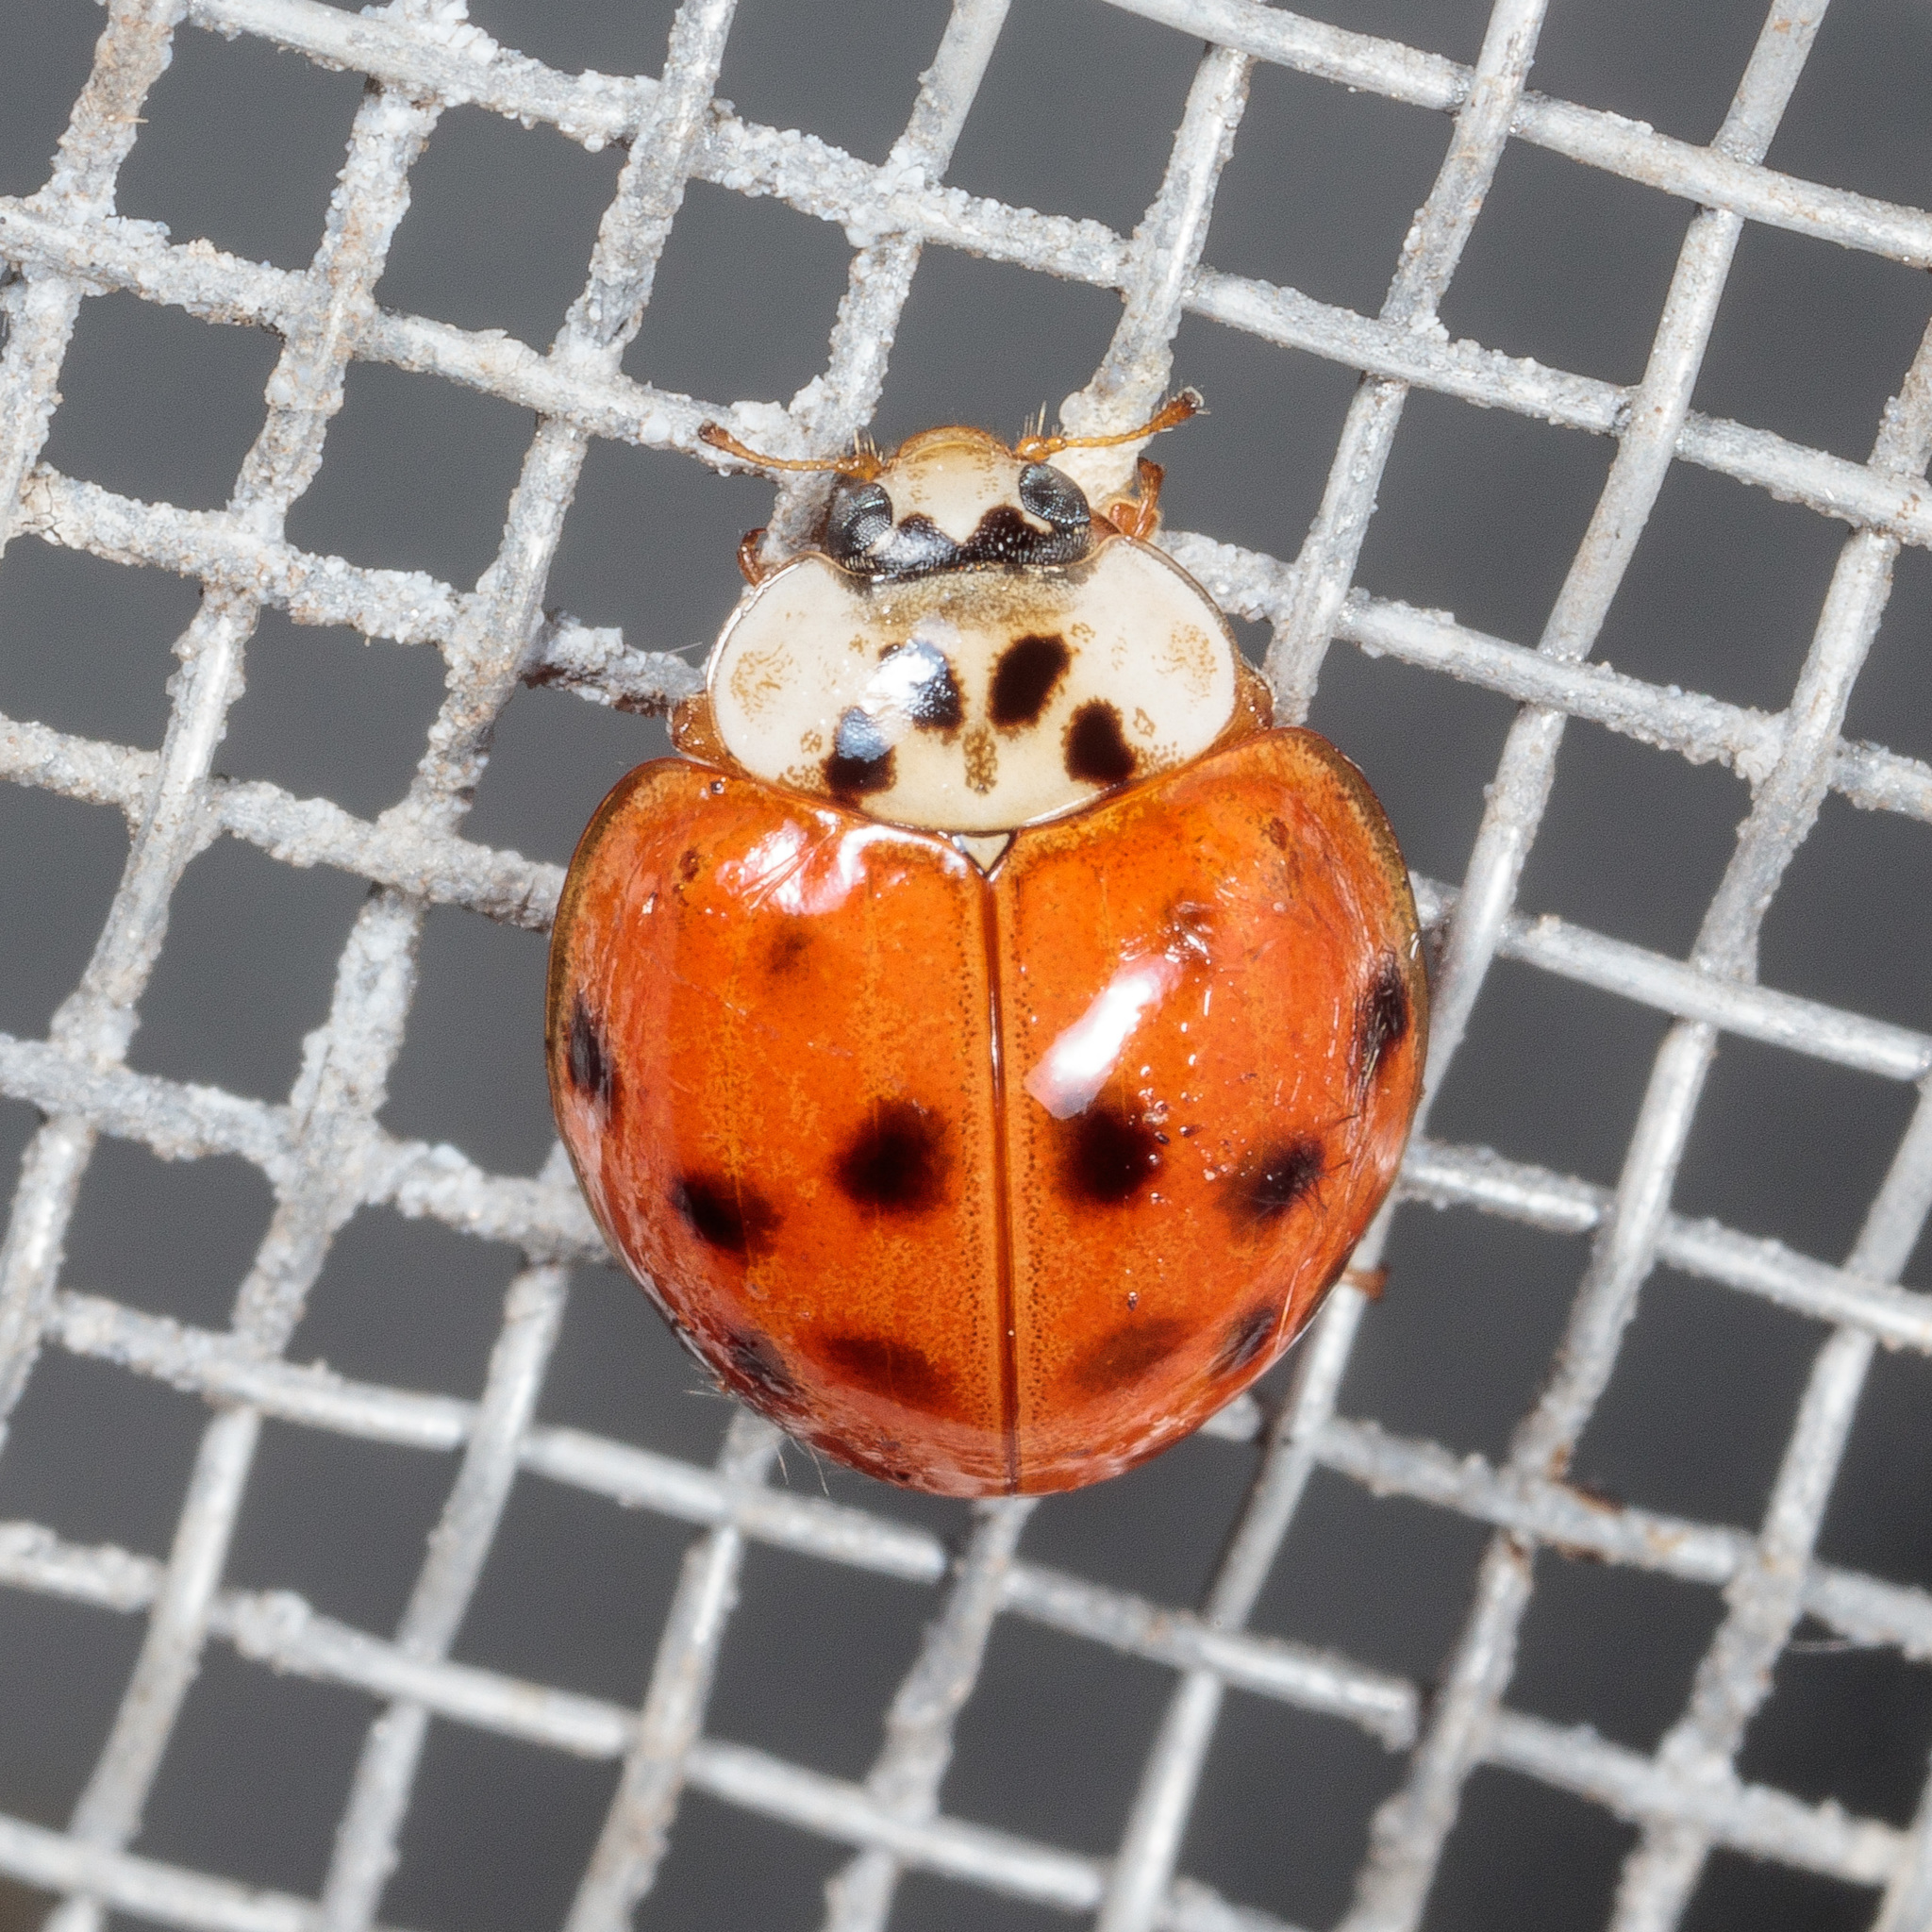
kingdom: Animalia
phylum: Arthropoda
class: Insecta
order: Coleoptera
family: Coccinellidae
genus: Harmonia
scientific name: Harmonia axyridis
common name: Harlequin ladybird
